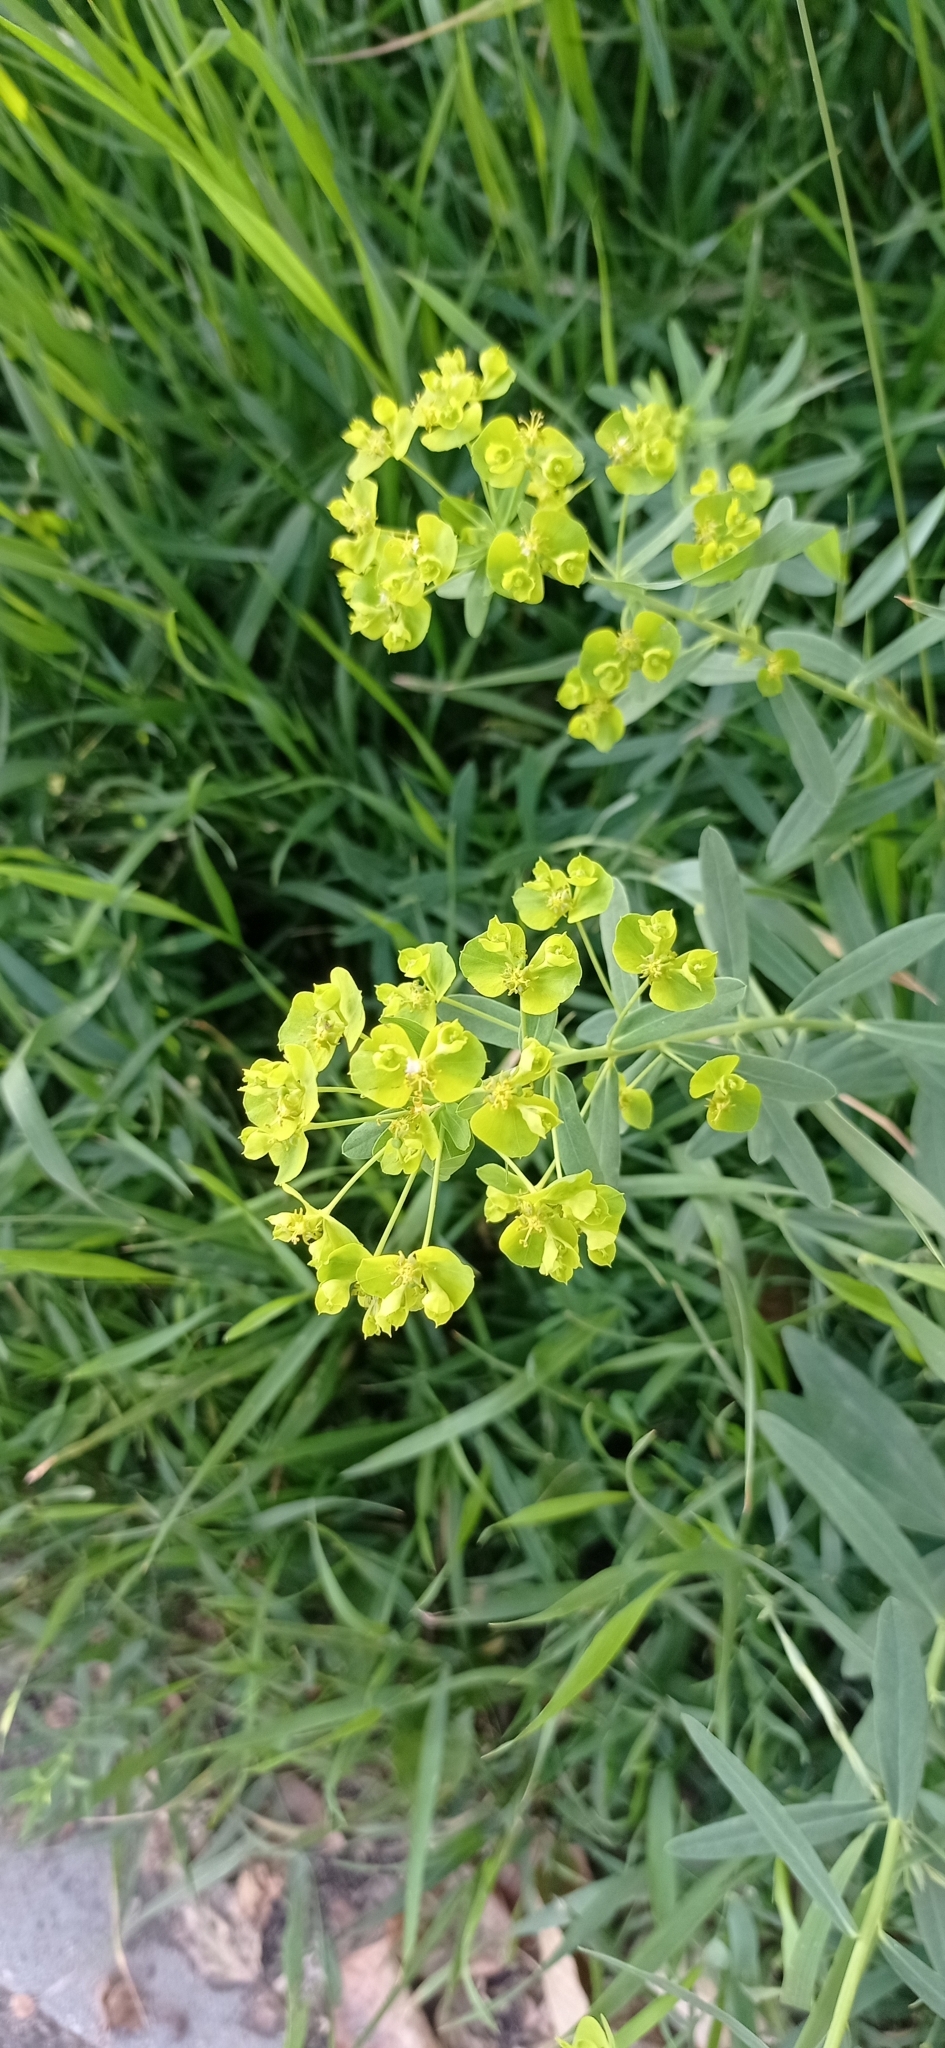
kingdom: Plantae
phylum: Tracheophyta
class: Magnoliopsida
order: Malpighiales
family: Euphorbiaceae
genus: Euphorbia
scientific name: Euphorbia virgata
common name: Leafy spurge
